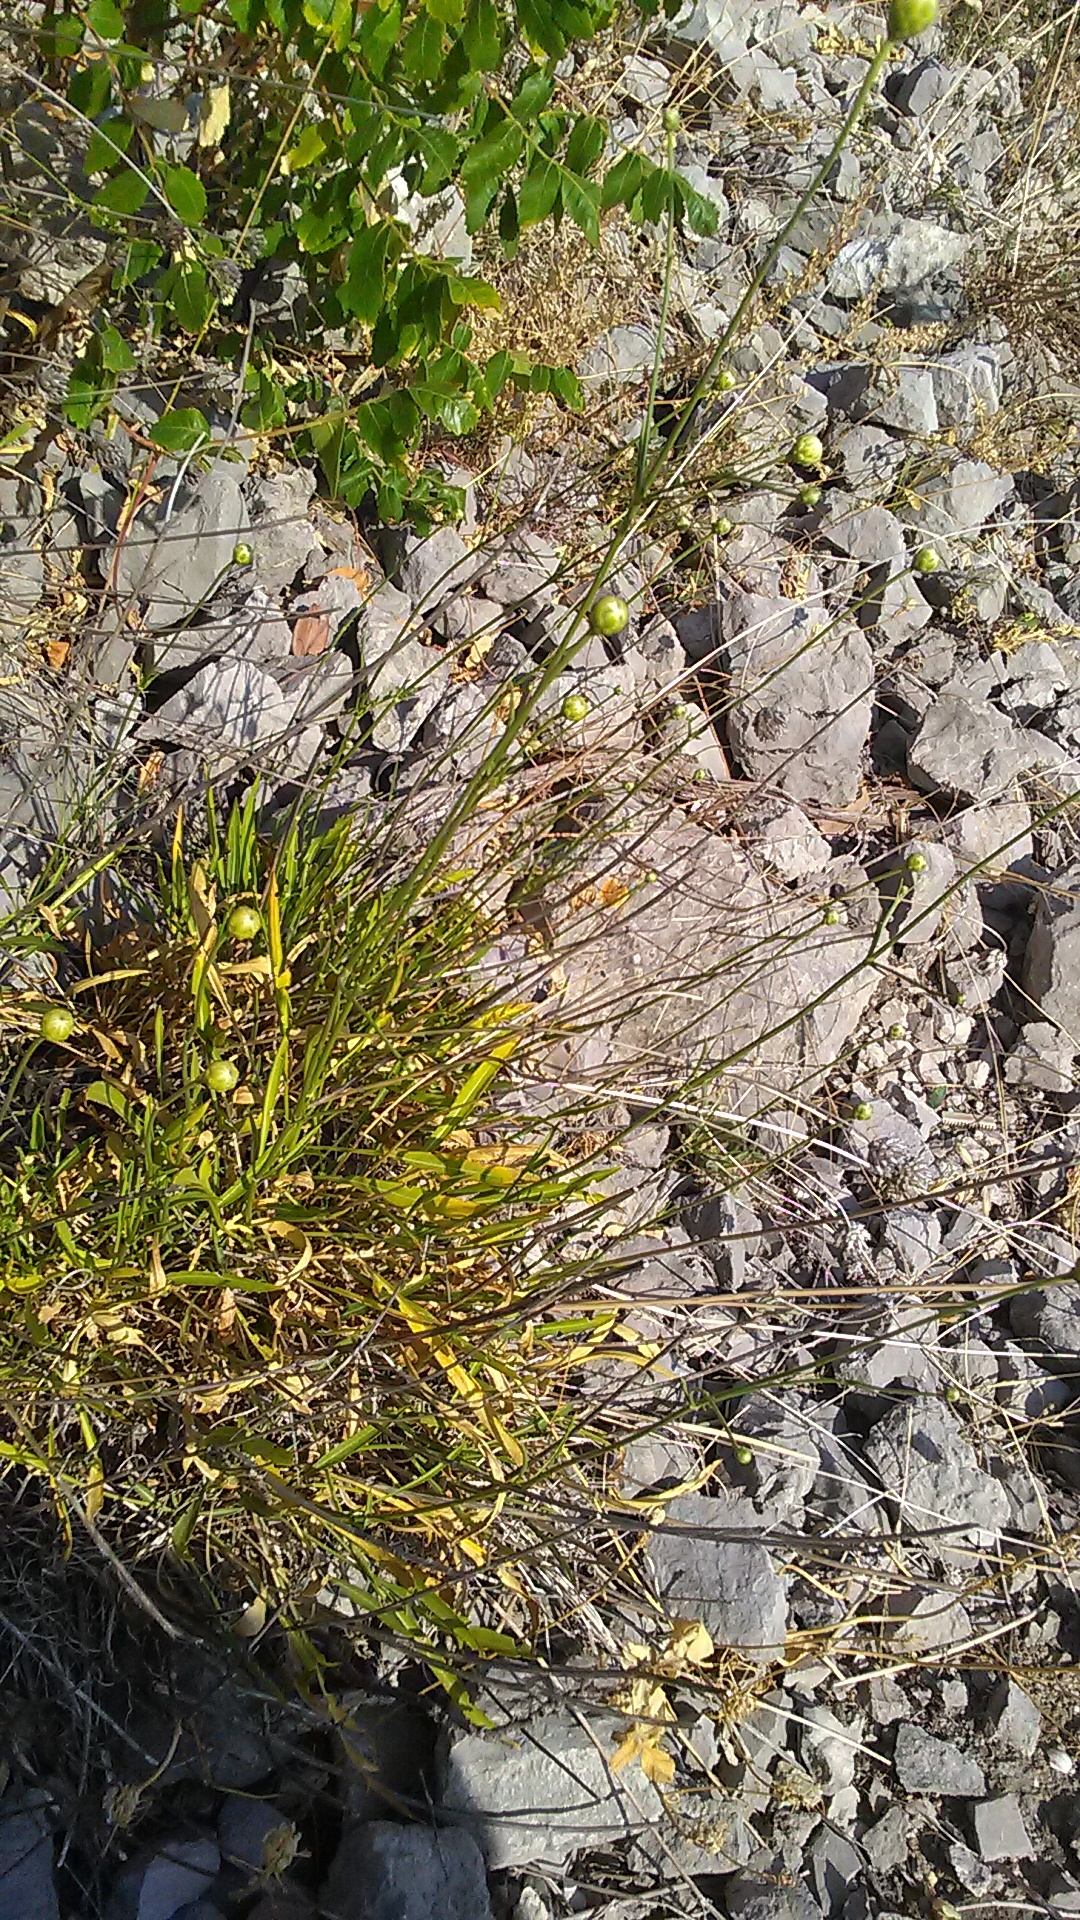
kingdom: Plantae
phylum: Tracheophyta
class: Magnoliopsida
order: Dipsacales
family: Caprifoliaceae
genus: Cephalaria
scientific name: Cephalaria coriacea
